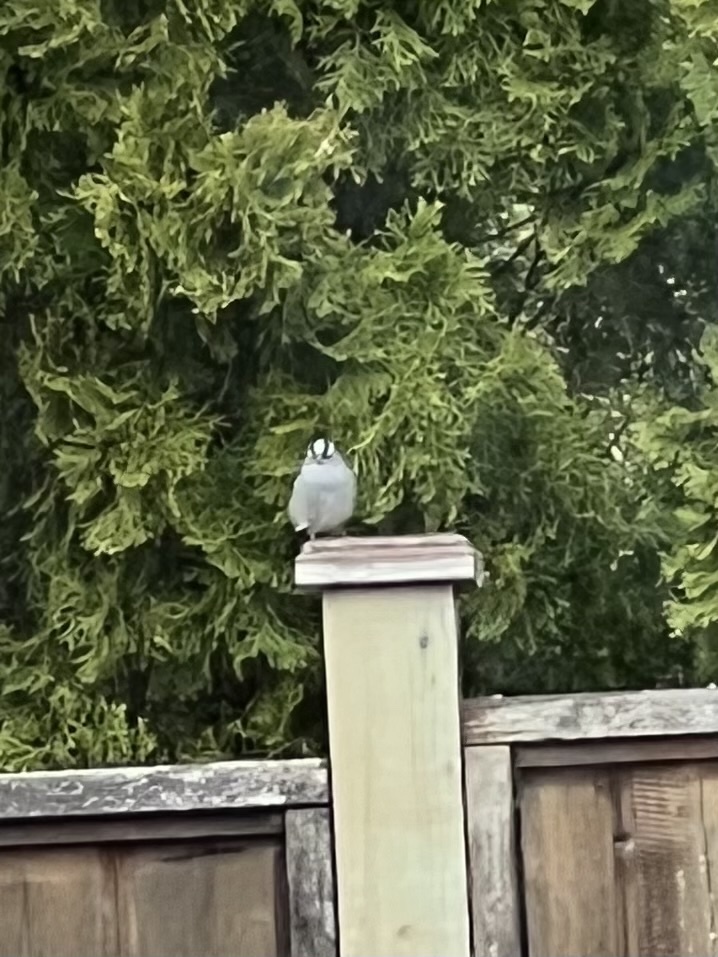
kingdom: Animalia
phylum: Chordata
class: Aves
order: Passeriformes
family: Passerellidae
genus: Zonotrichia
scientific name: Zonotrichia leucophrys
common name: White-crowned sparrow
